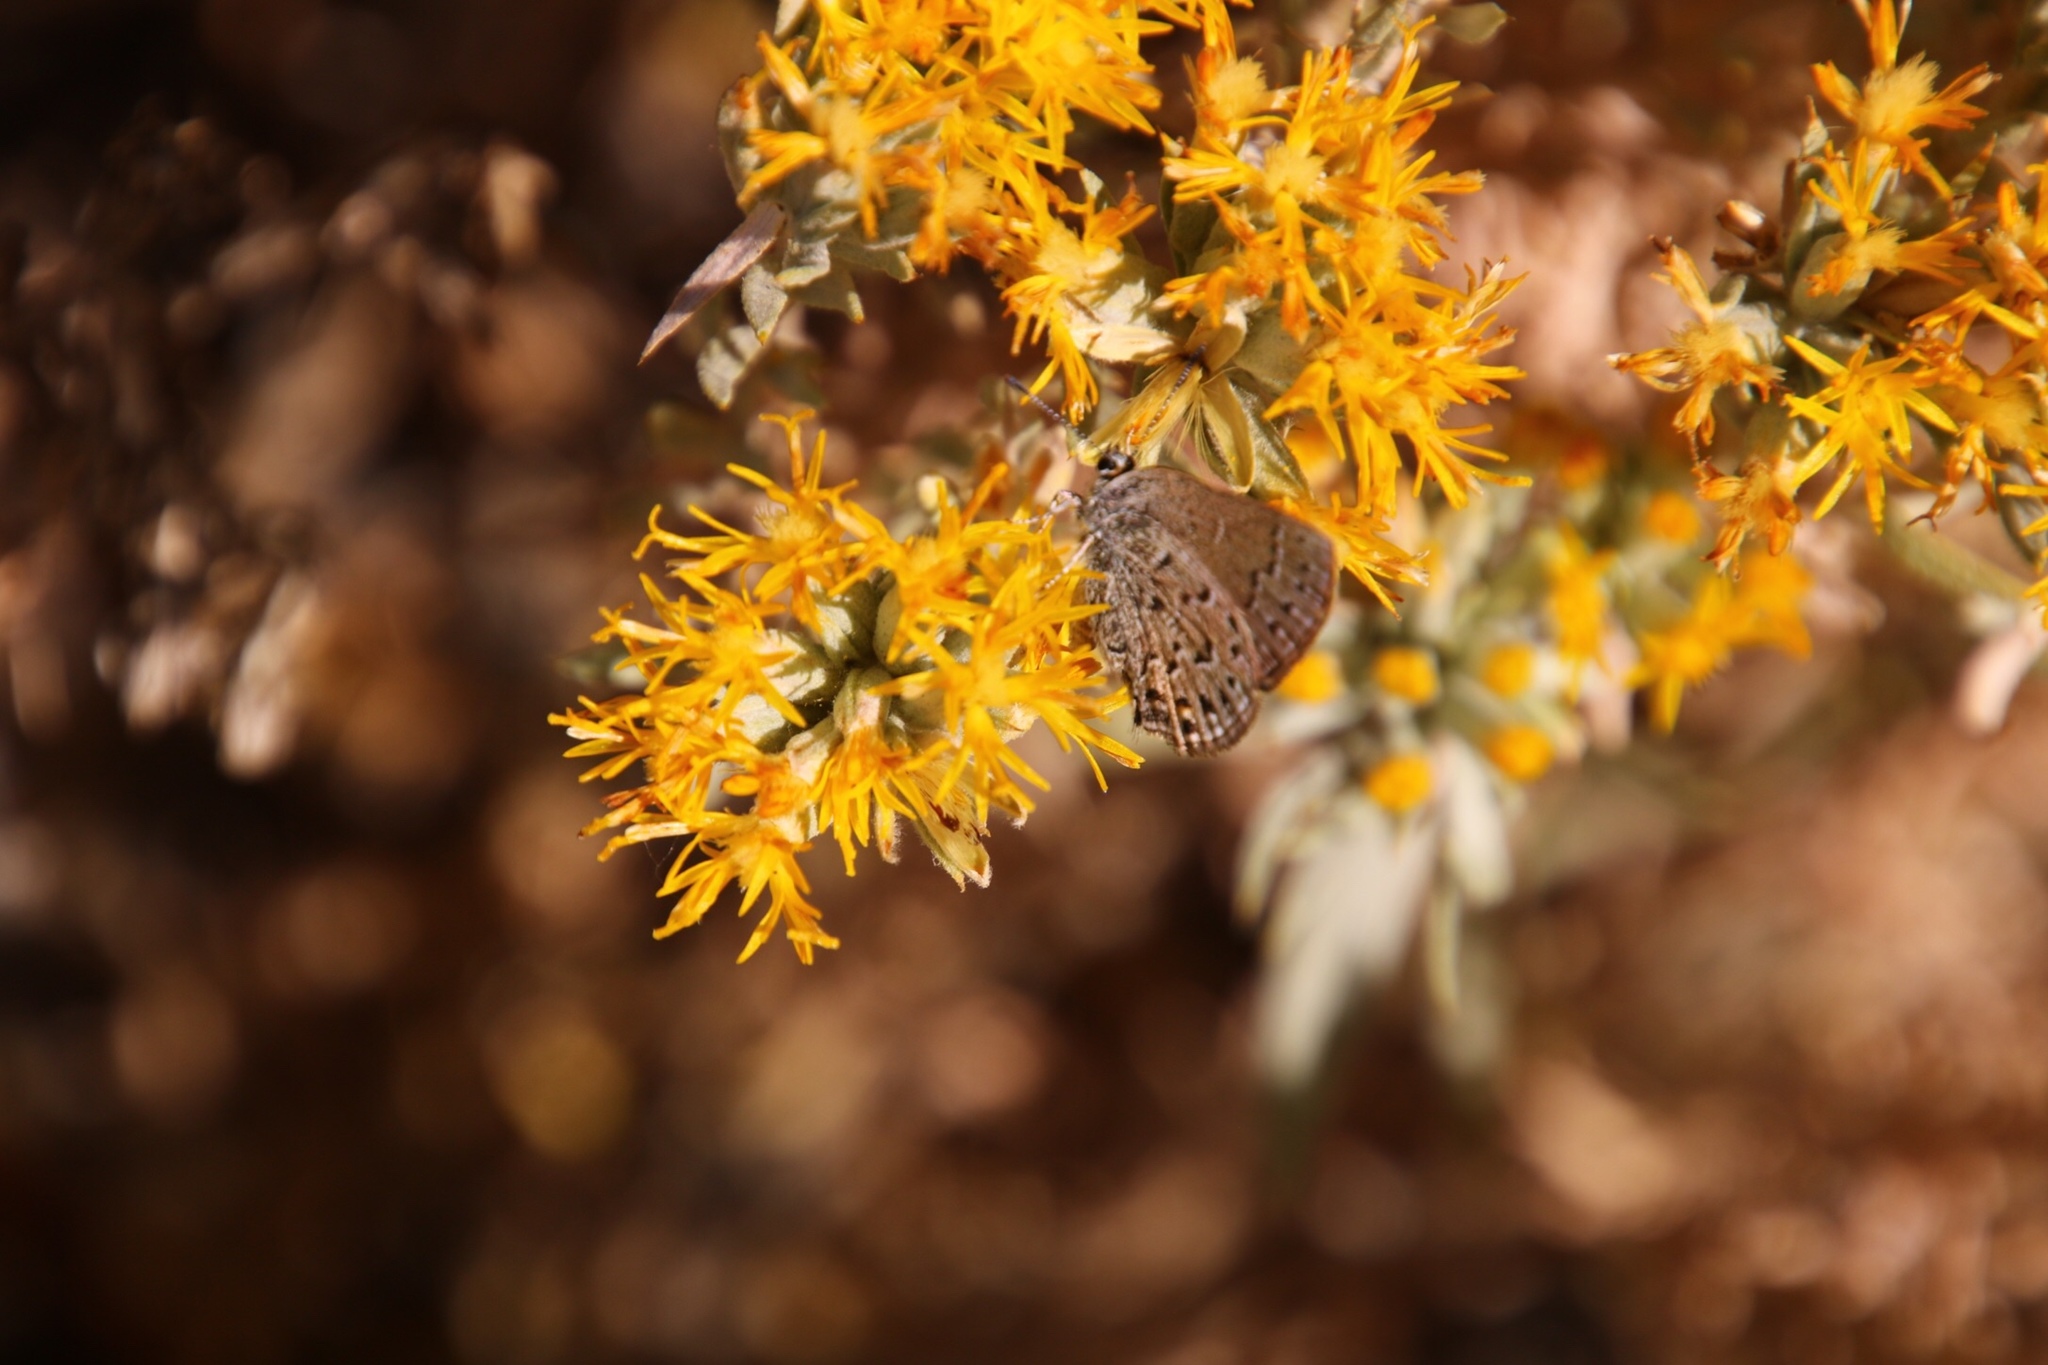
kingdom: Animalia
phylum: Arthropoda
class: Insecta
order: Lepidoptera
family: Lycaenidae
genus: Satyrium
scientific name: Satyrium behrii
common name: Behr's hairstreak
